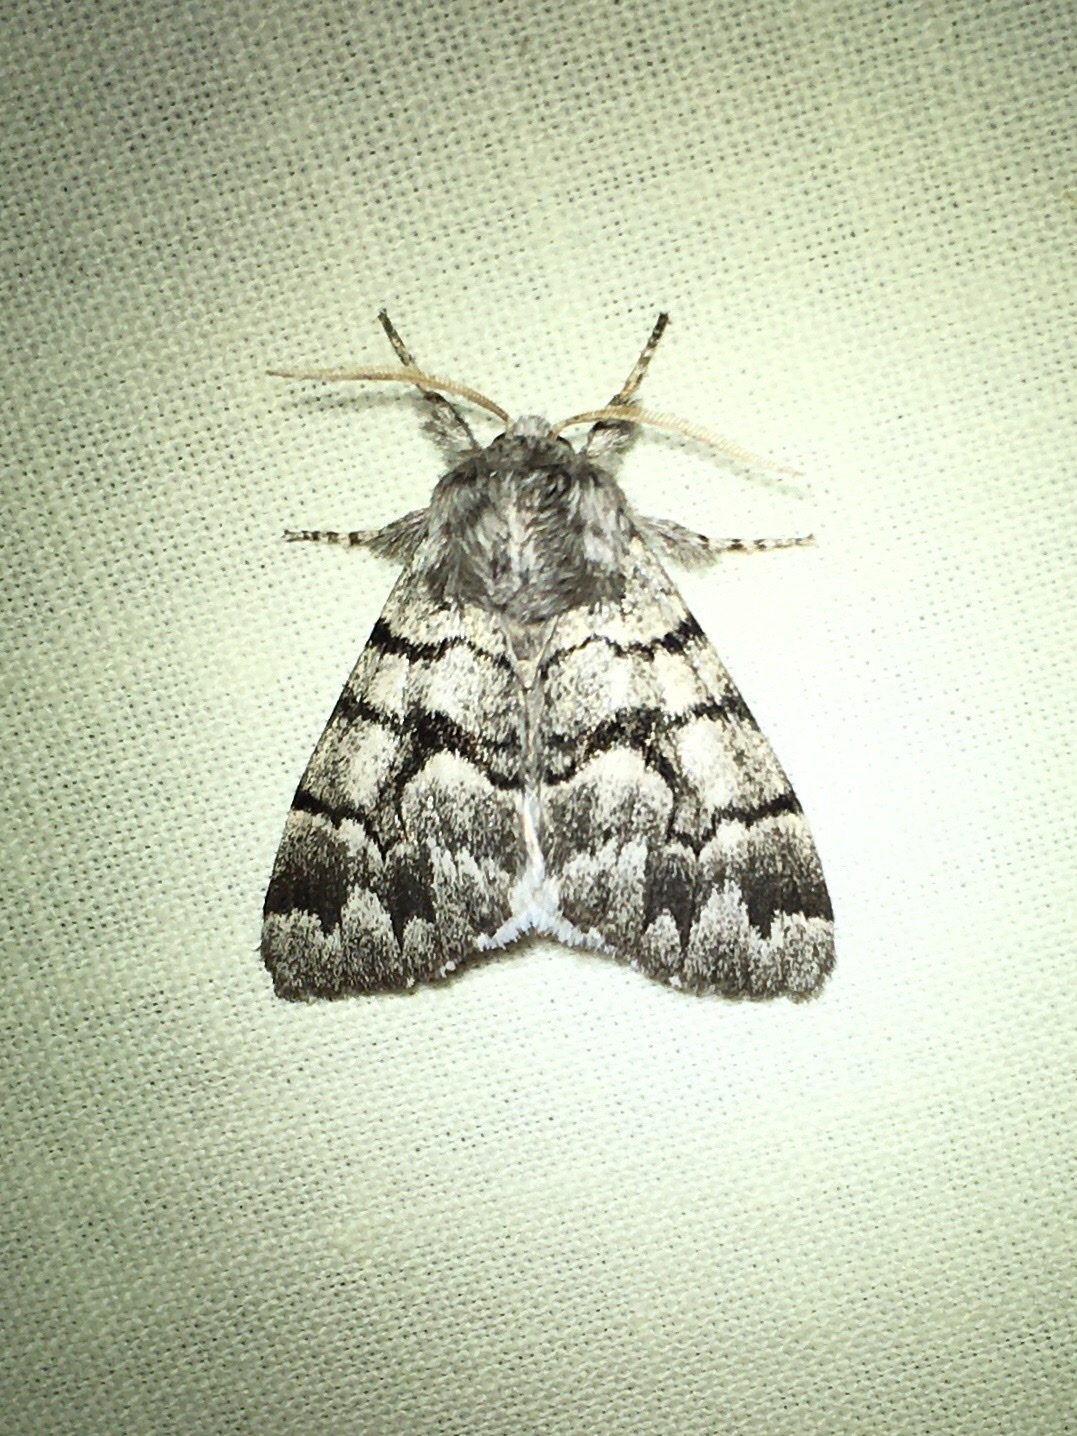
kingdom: Animalia
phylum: Arthropoda
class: Insecta
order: Lepidoptera
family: Noctuidae
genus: Panthea
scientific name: Panthea furcilla
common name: Eastern panthea moth
